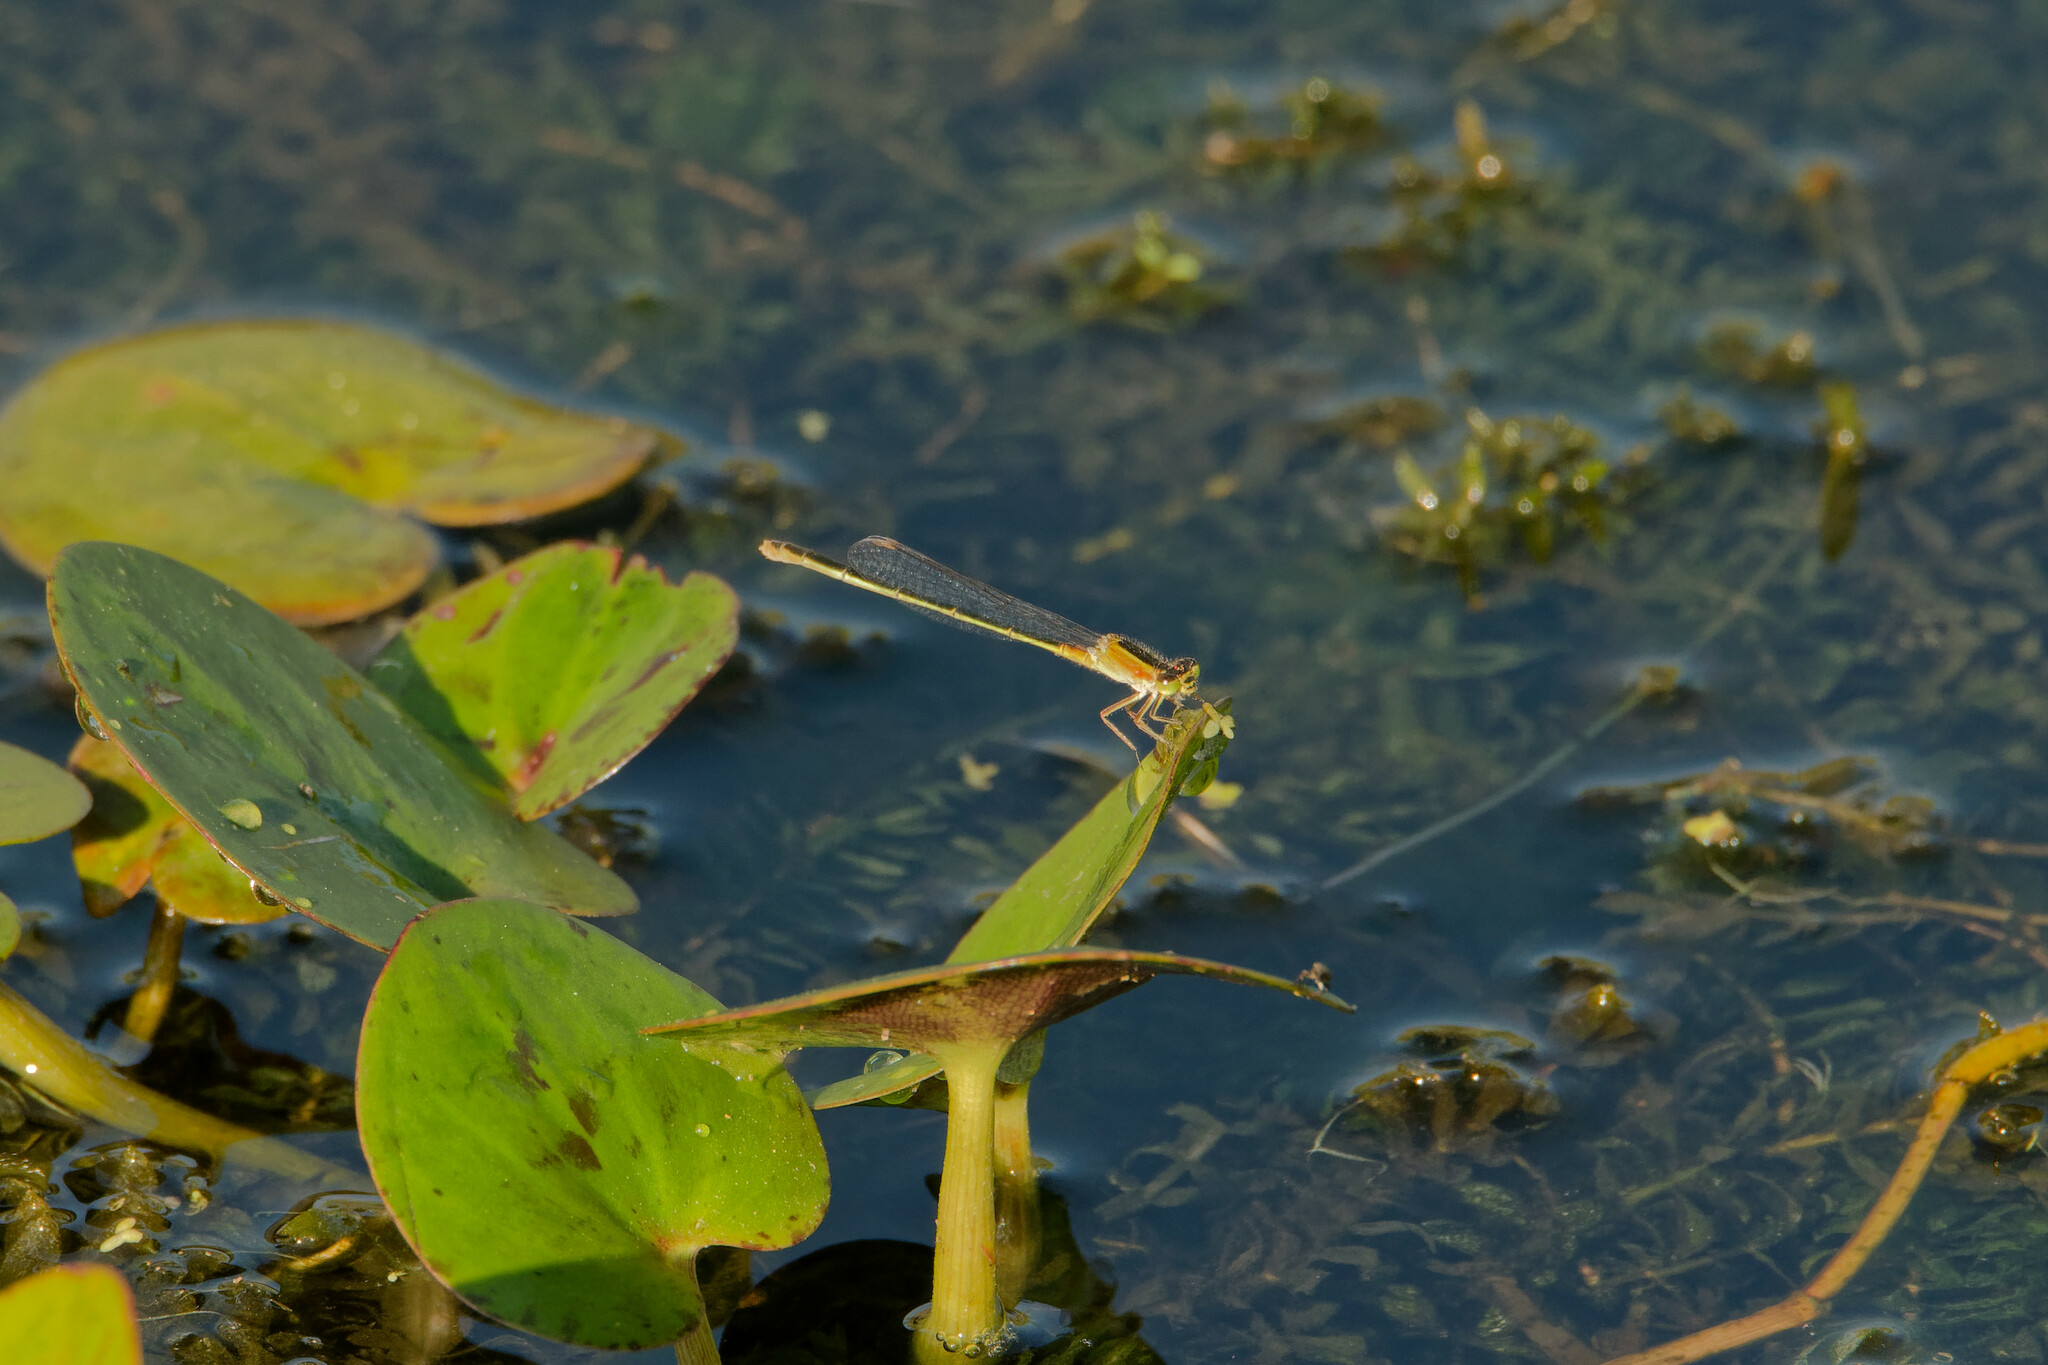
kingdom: Animalia
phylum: Arthropoda
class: Insecta
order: Odonata
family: Coenagrionidae
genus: Ischnura
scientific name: Ischnura ramburii
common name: Rambur's forktail
